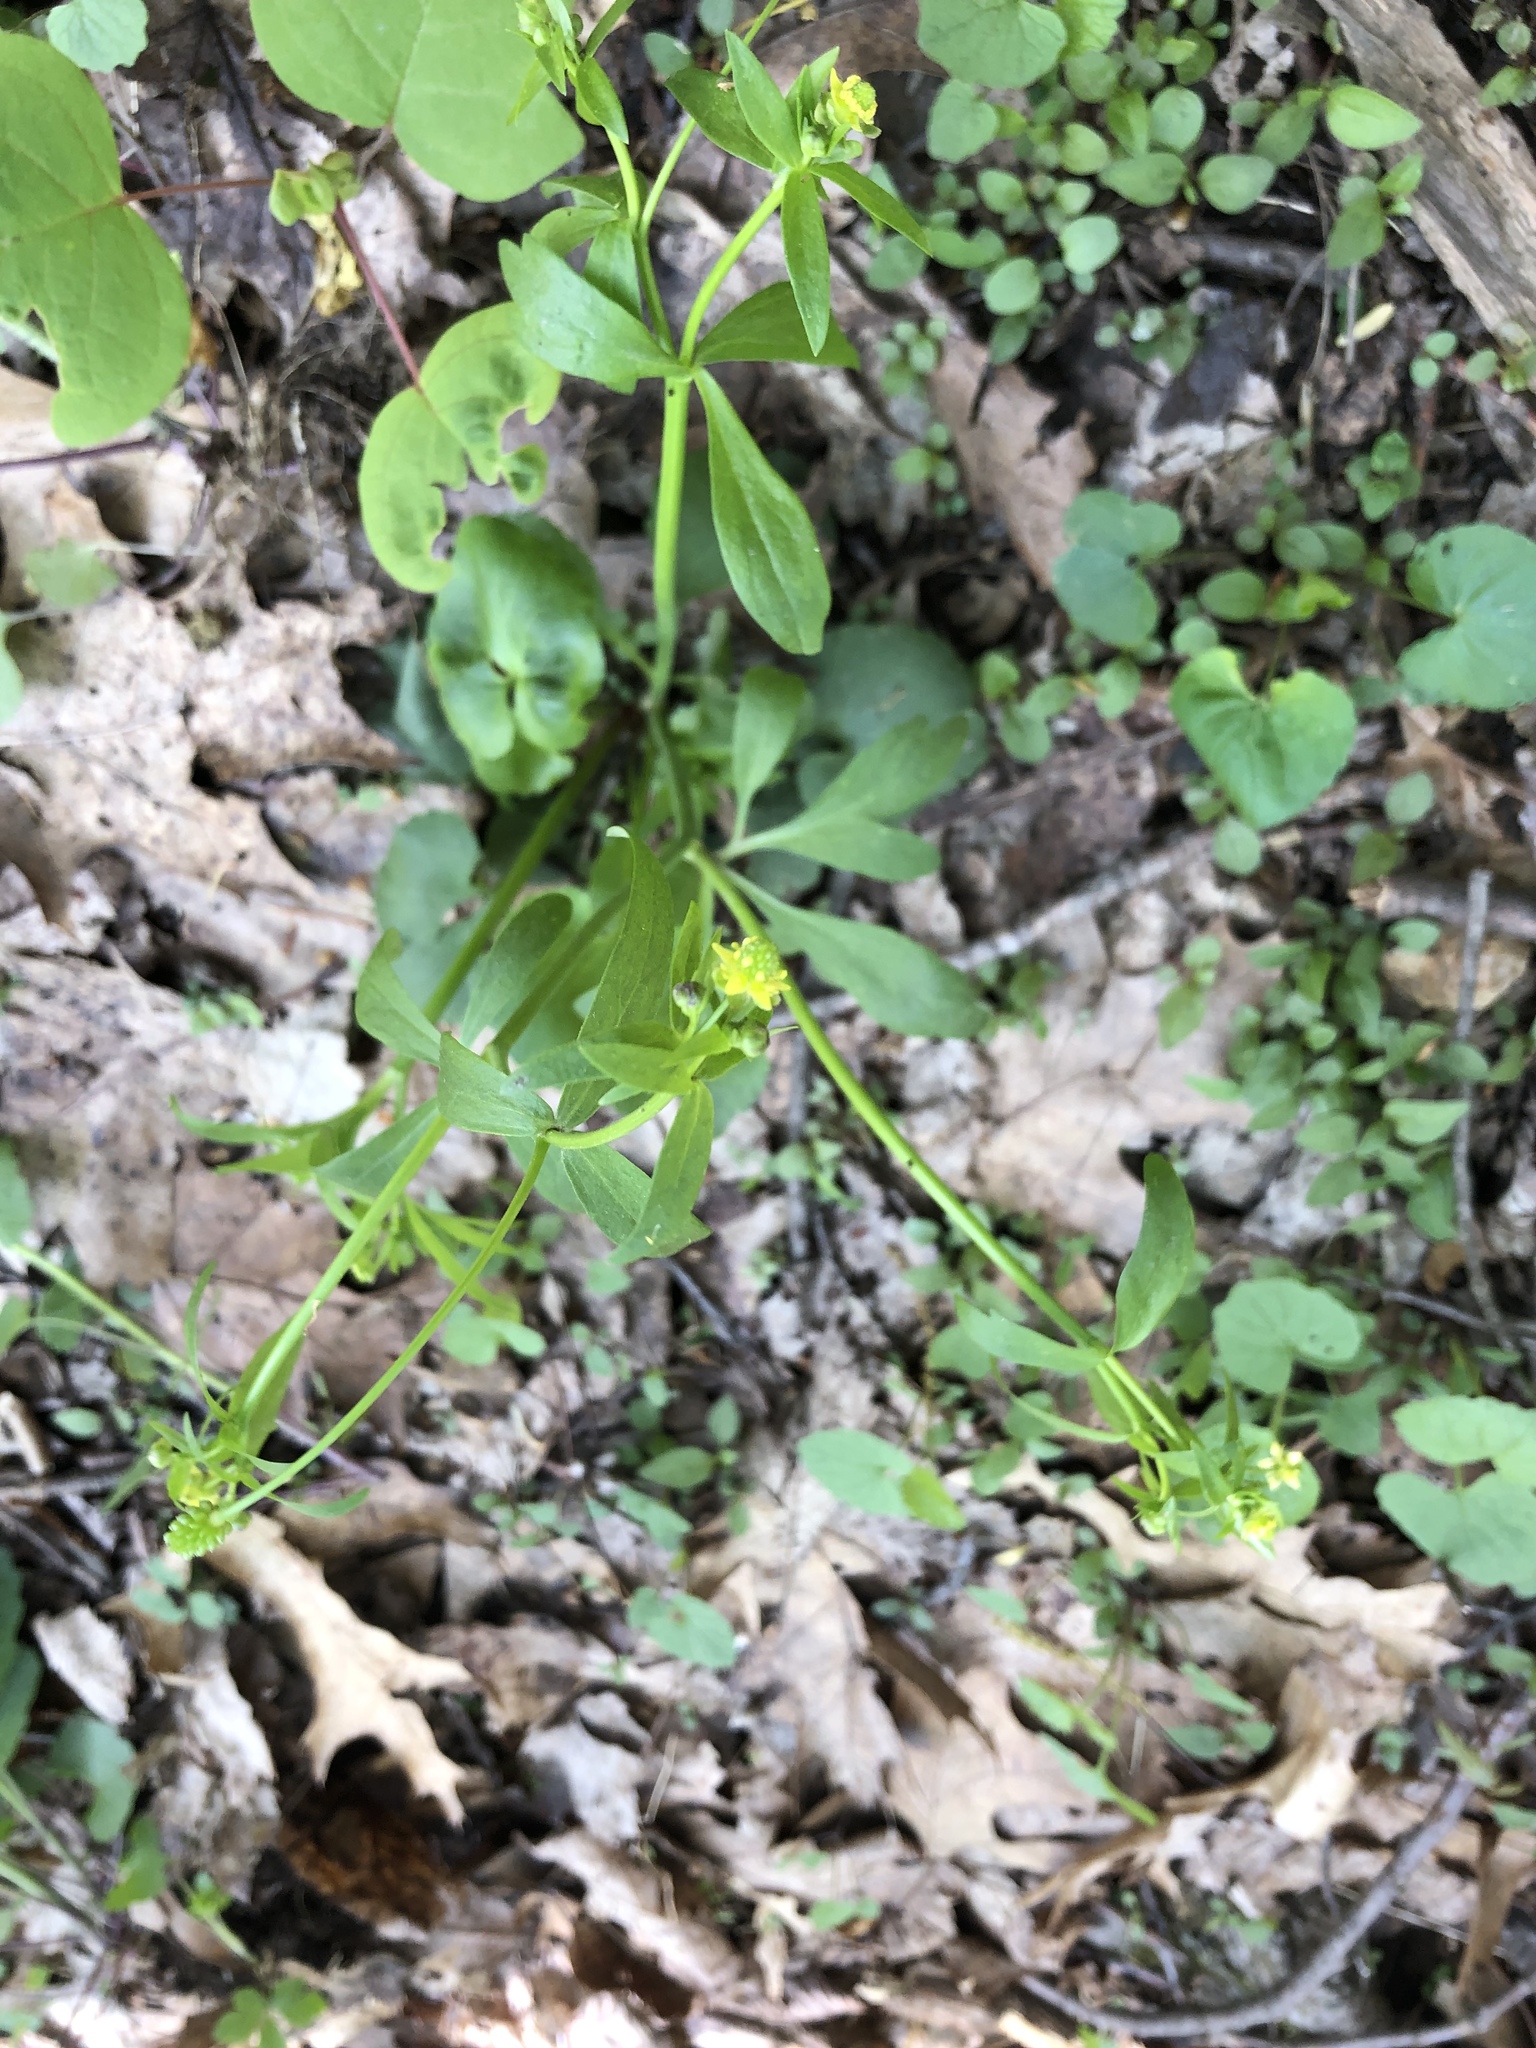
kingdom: Plantae
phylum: Tracheophyta
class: Magnoliopsida
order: Ranunculales
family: Ranunculaceae
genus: Ranunculus
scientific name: Ranunculus abortivus
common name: Early wood buttercup
